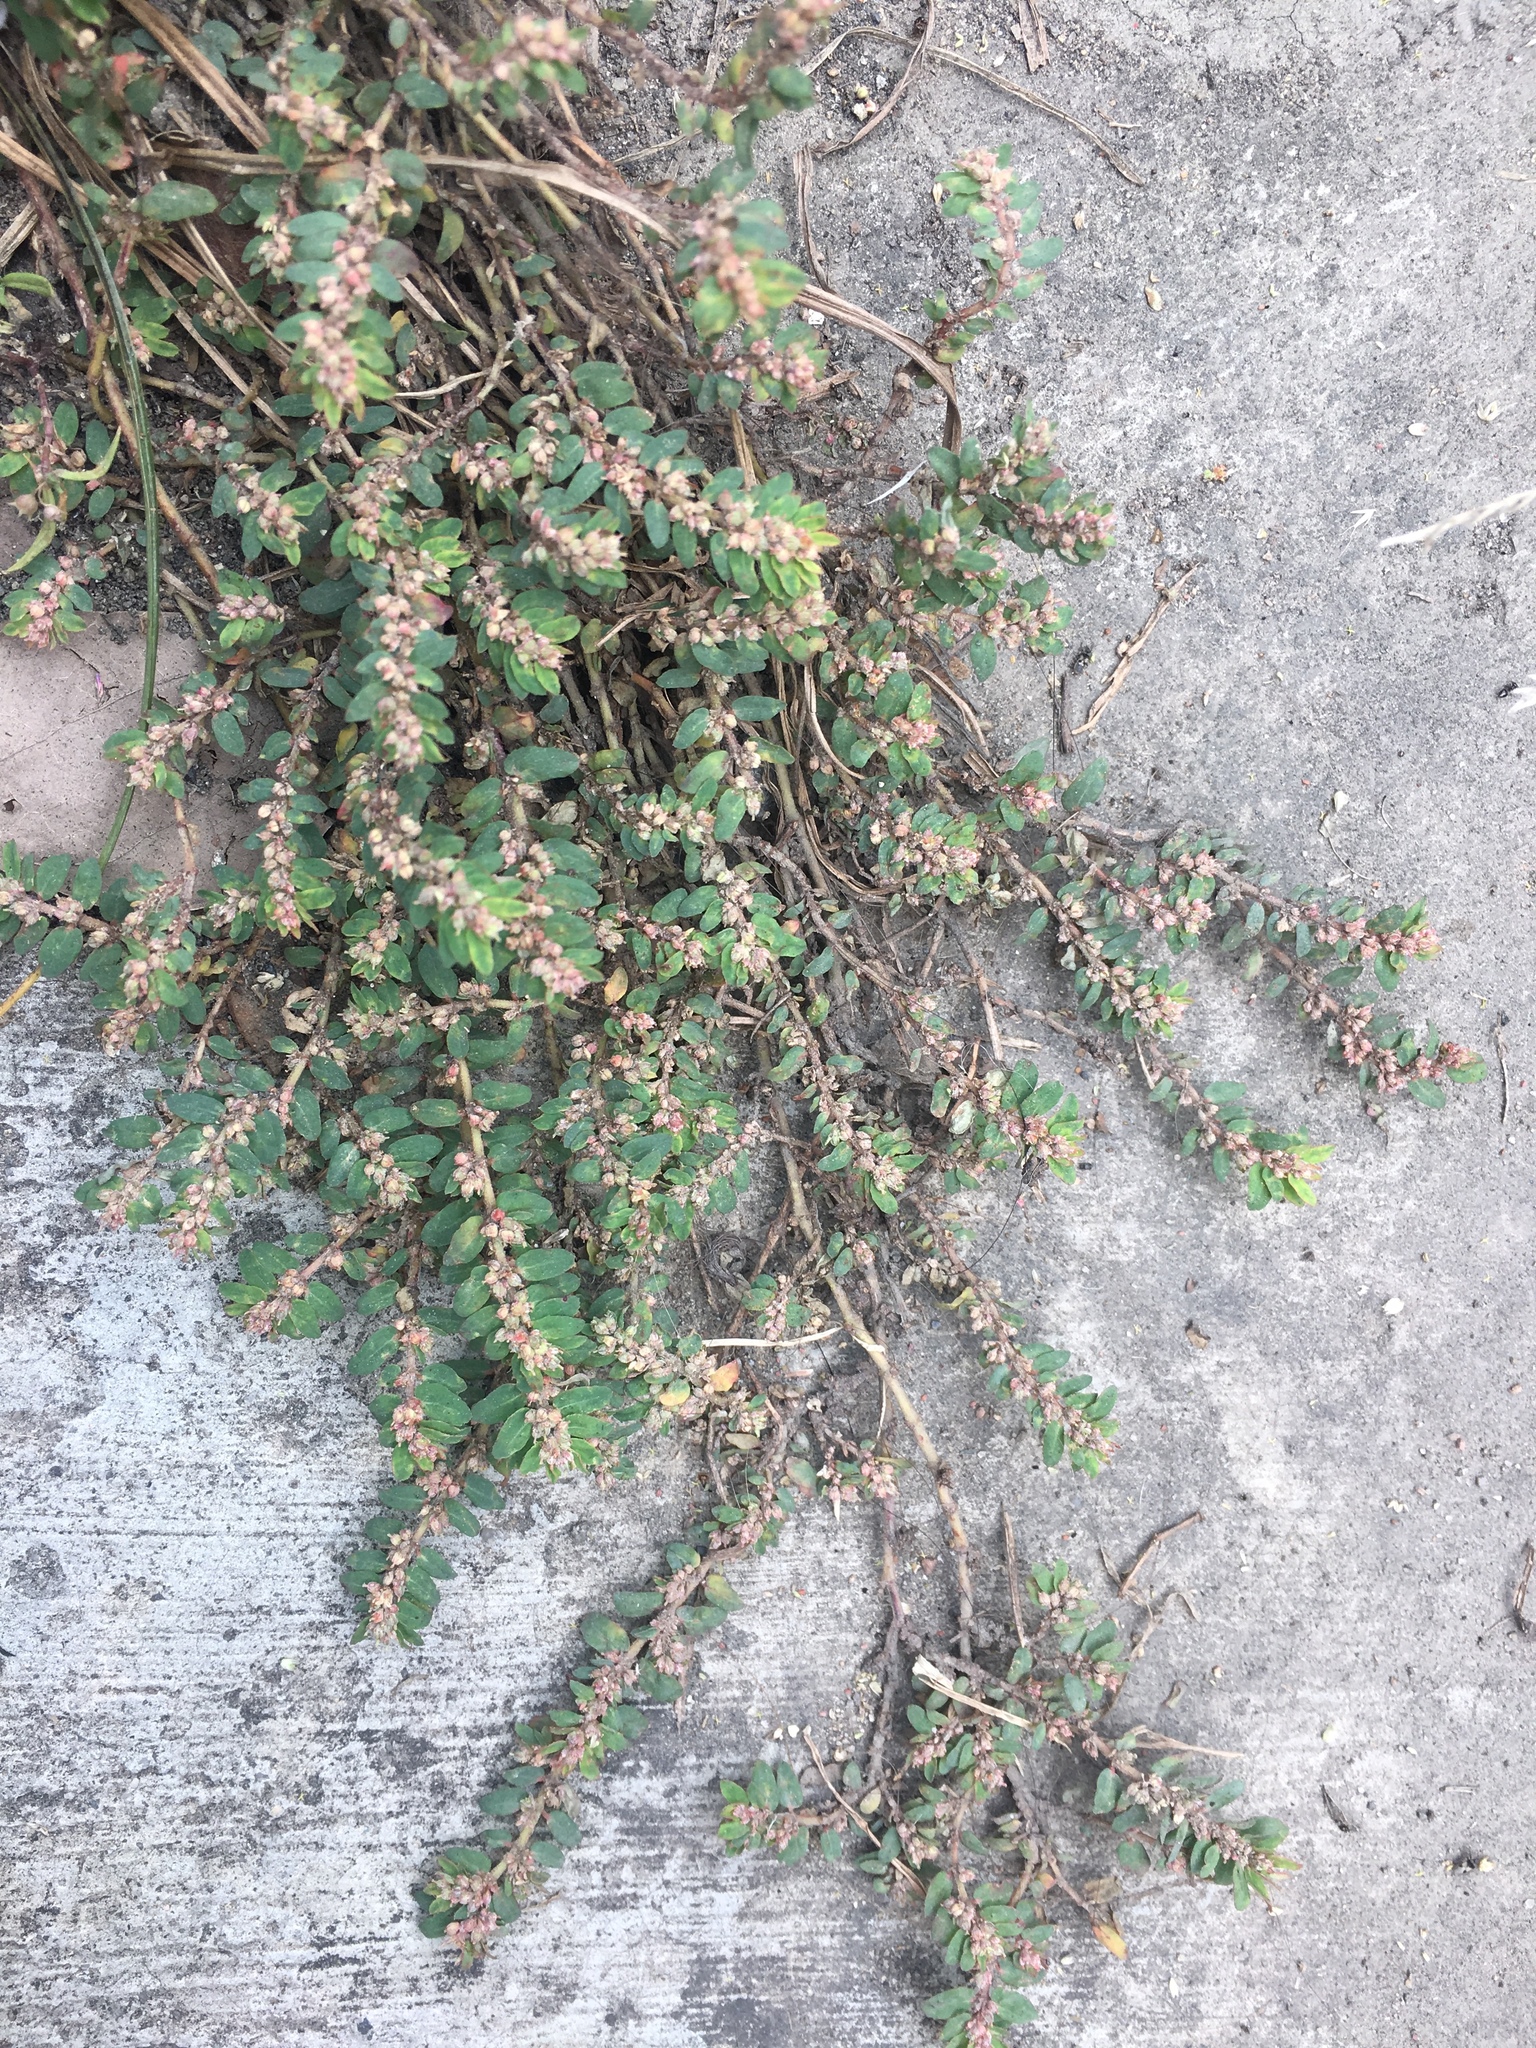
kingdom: Plantae
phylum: Tracheophyta
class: Magnoliopsida
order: Malpighiales
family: Euphorbiaceae
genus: Euphorbia
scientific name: Euphorbia thymifolia
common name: Gulf sandmat
